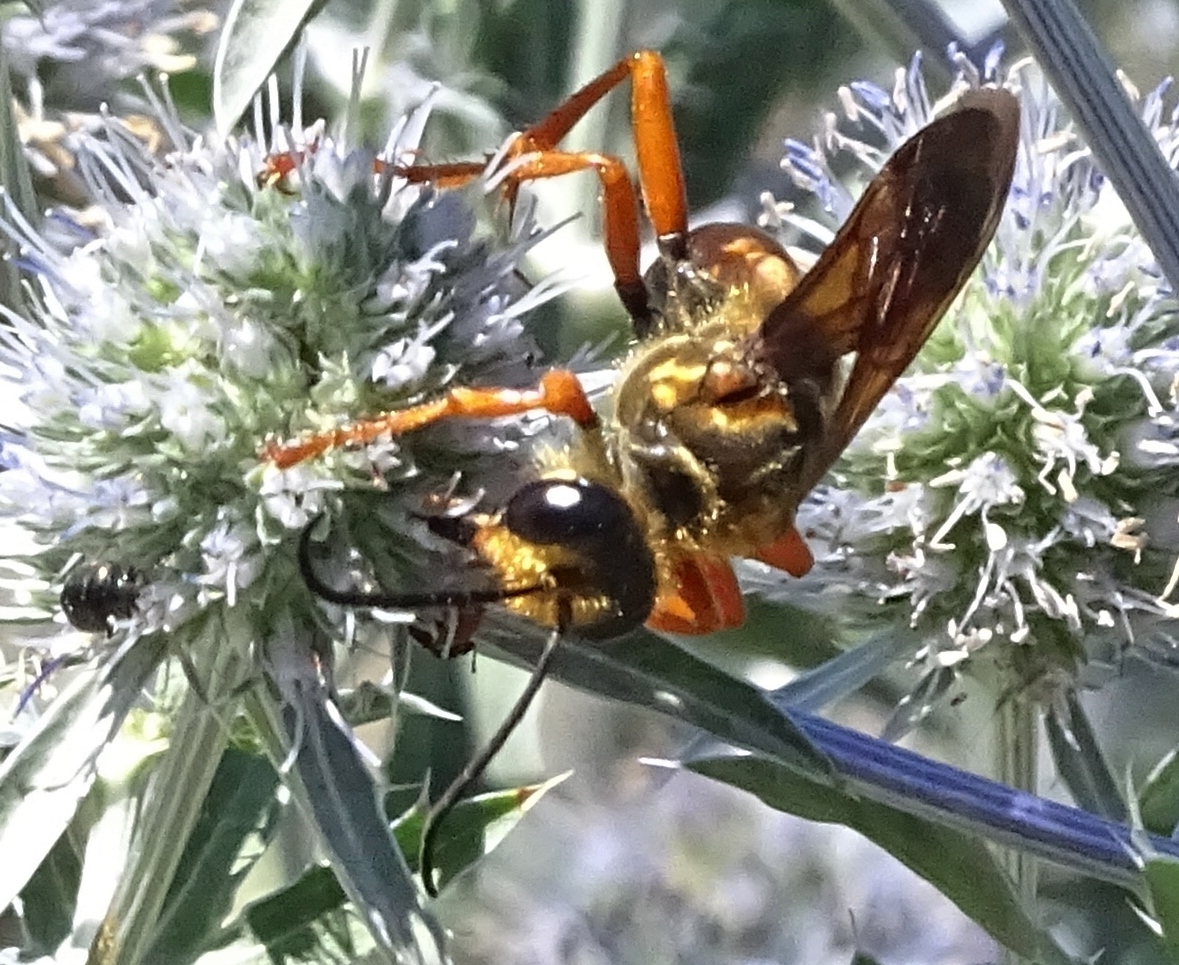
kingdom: Animalia
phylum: Arthropoda
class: Insecta
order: Hymenoptera
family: Sphecidae
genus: Sphex
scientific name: Sphex ichneumoneus
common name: Great golden digger wasp
